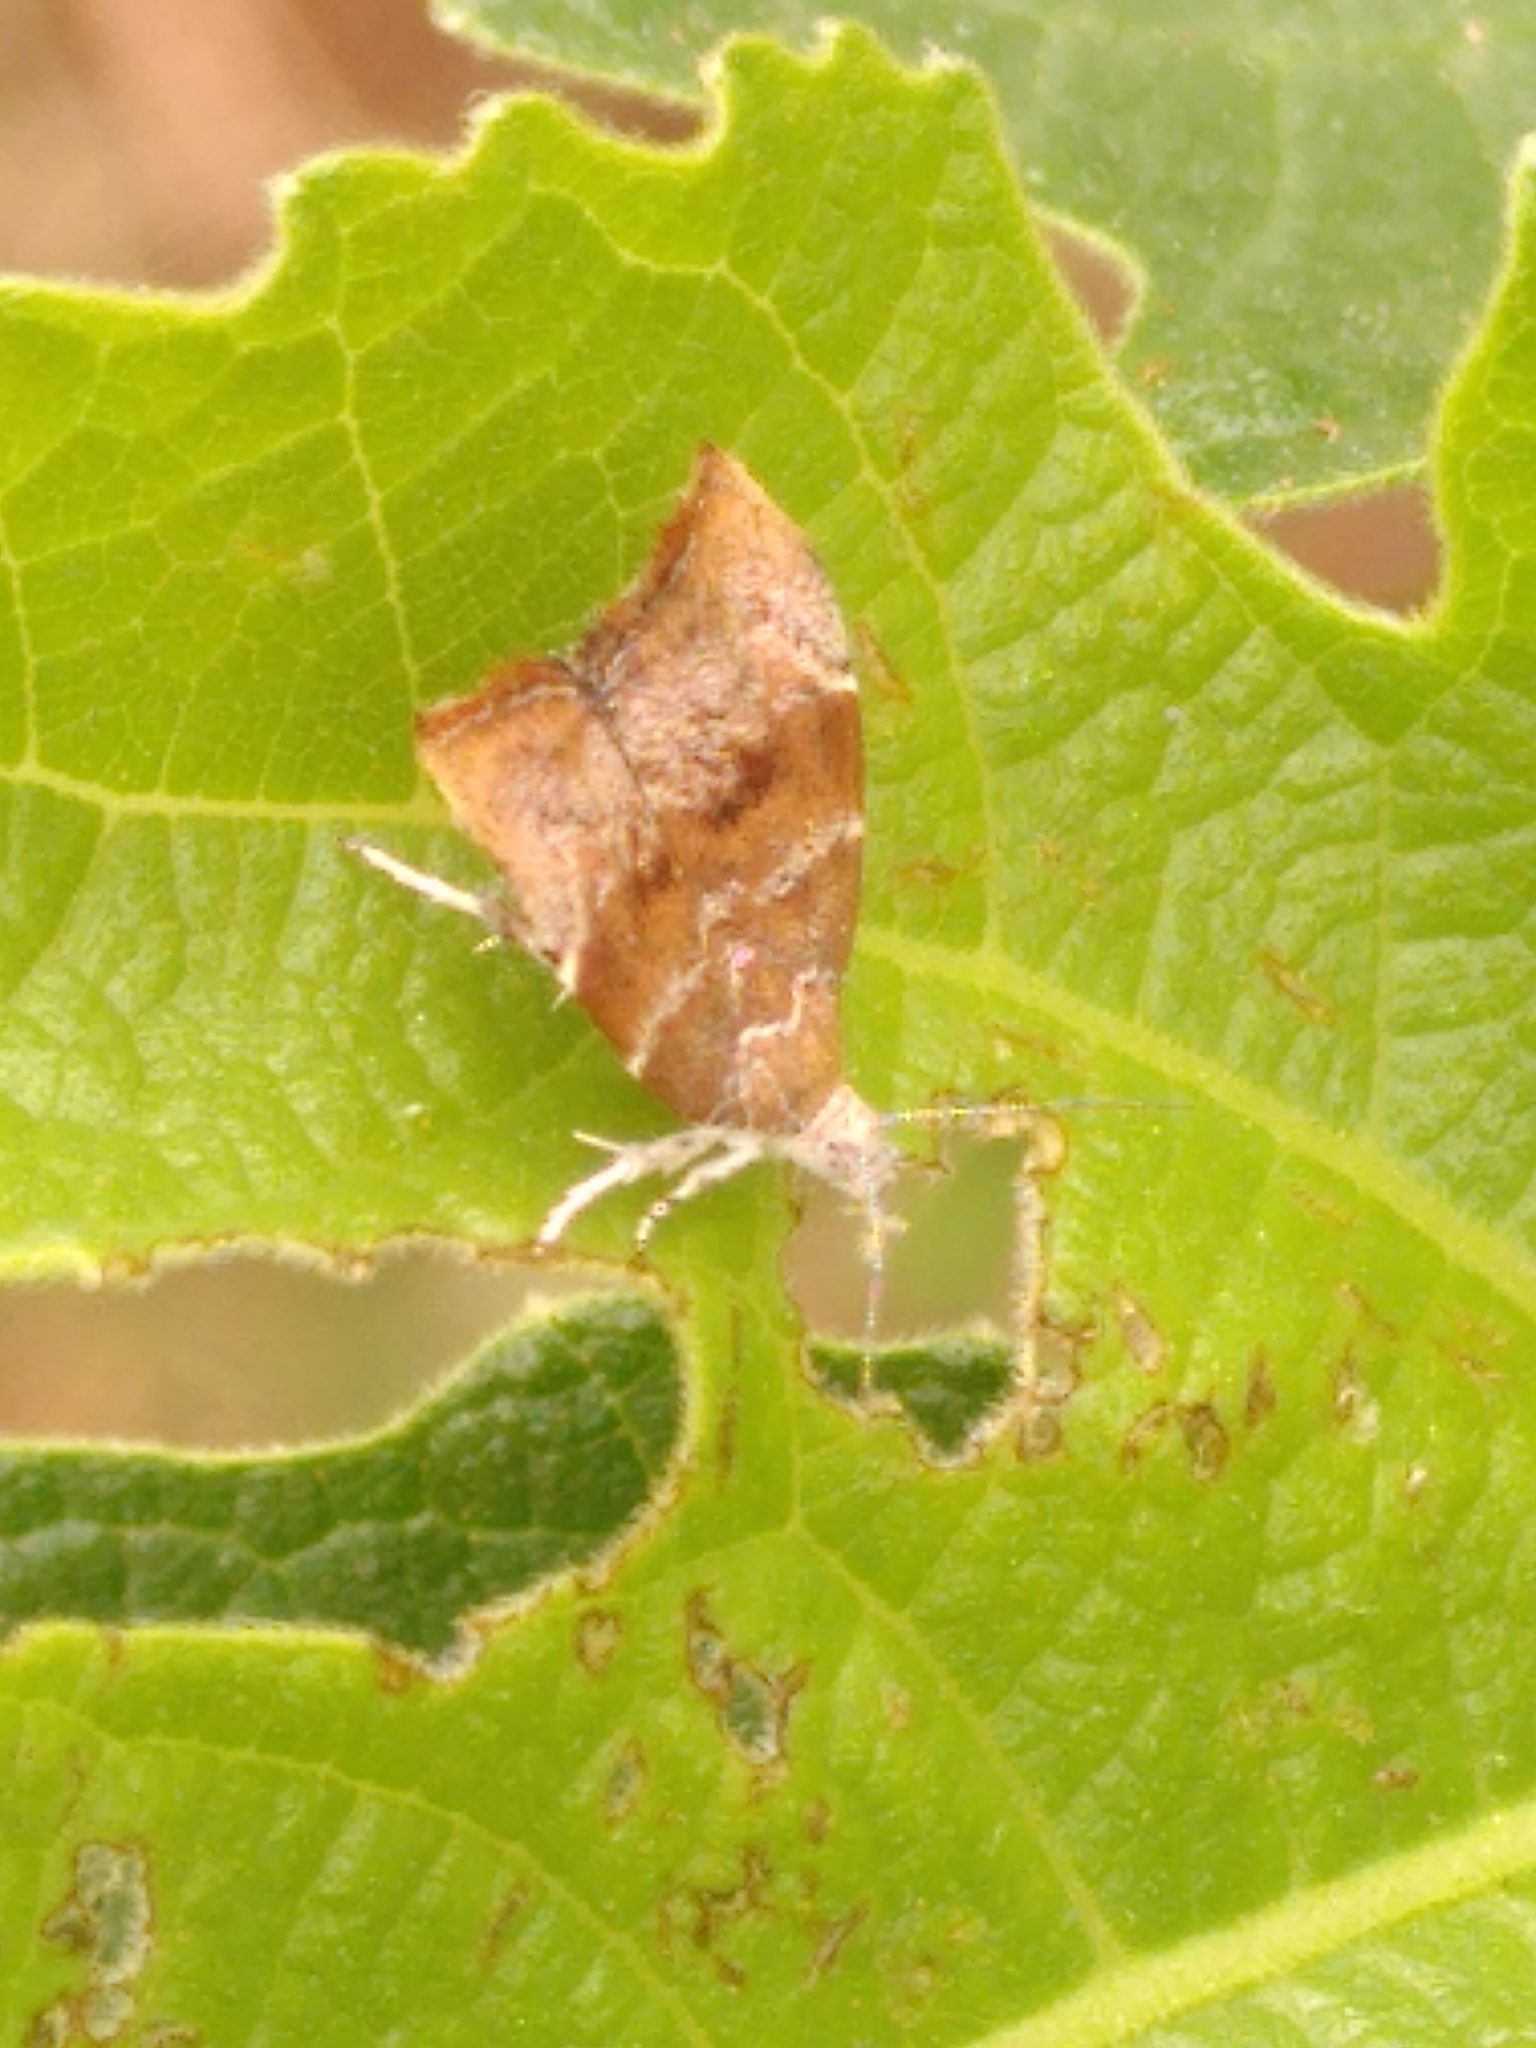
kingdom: Animalia
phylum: Arthropoda
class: Insecta
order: Lepidoptera
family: Choreutidae
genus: Anthophila
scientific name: Anthophila nemorana
